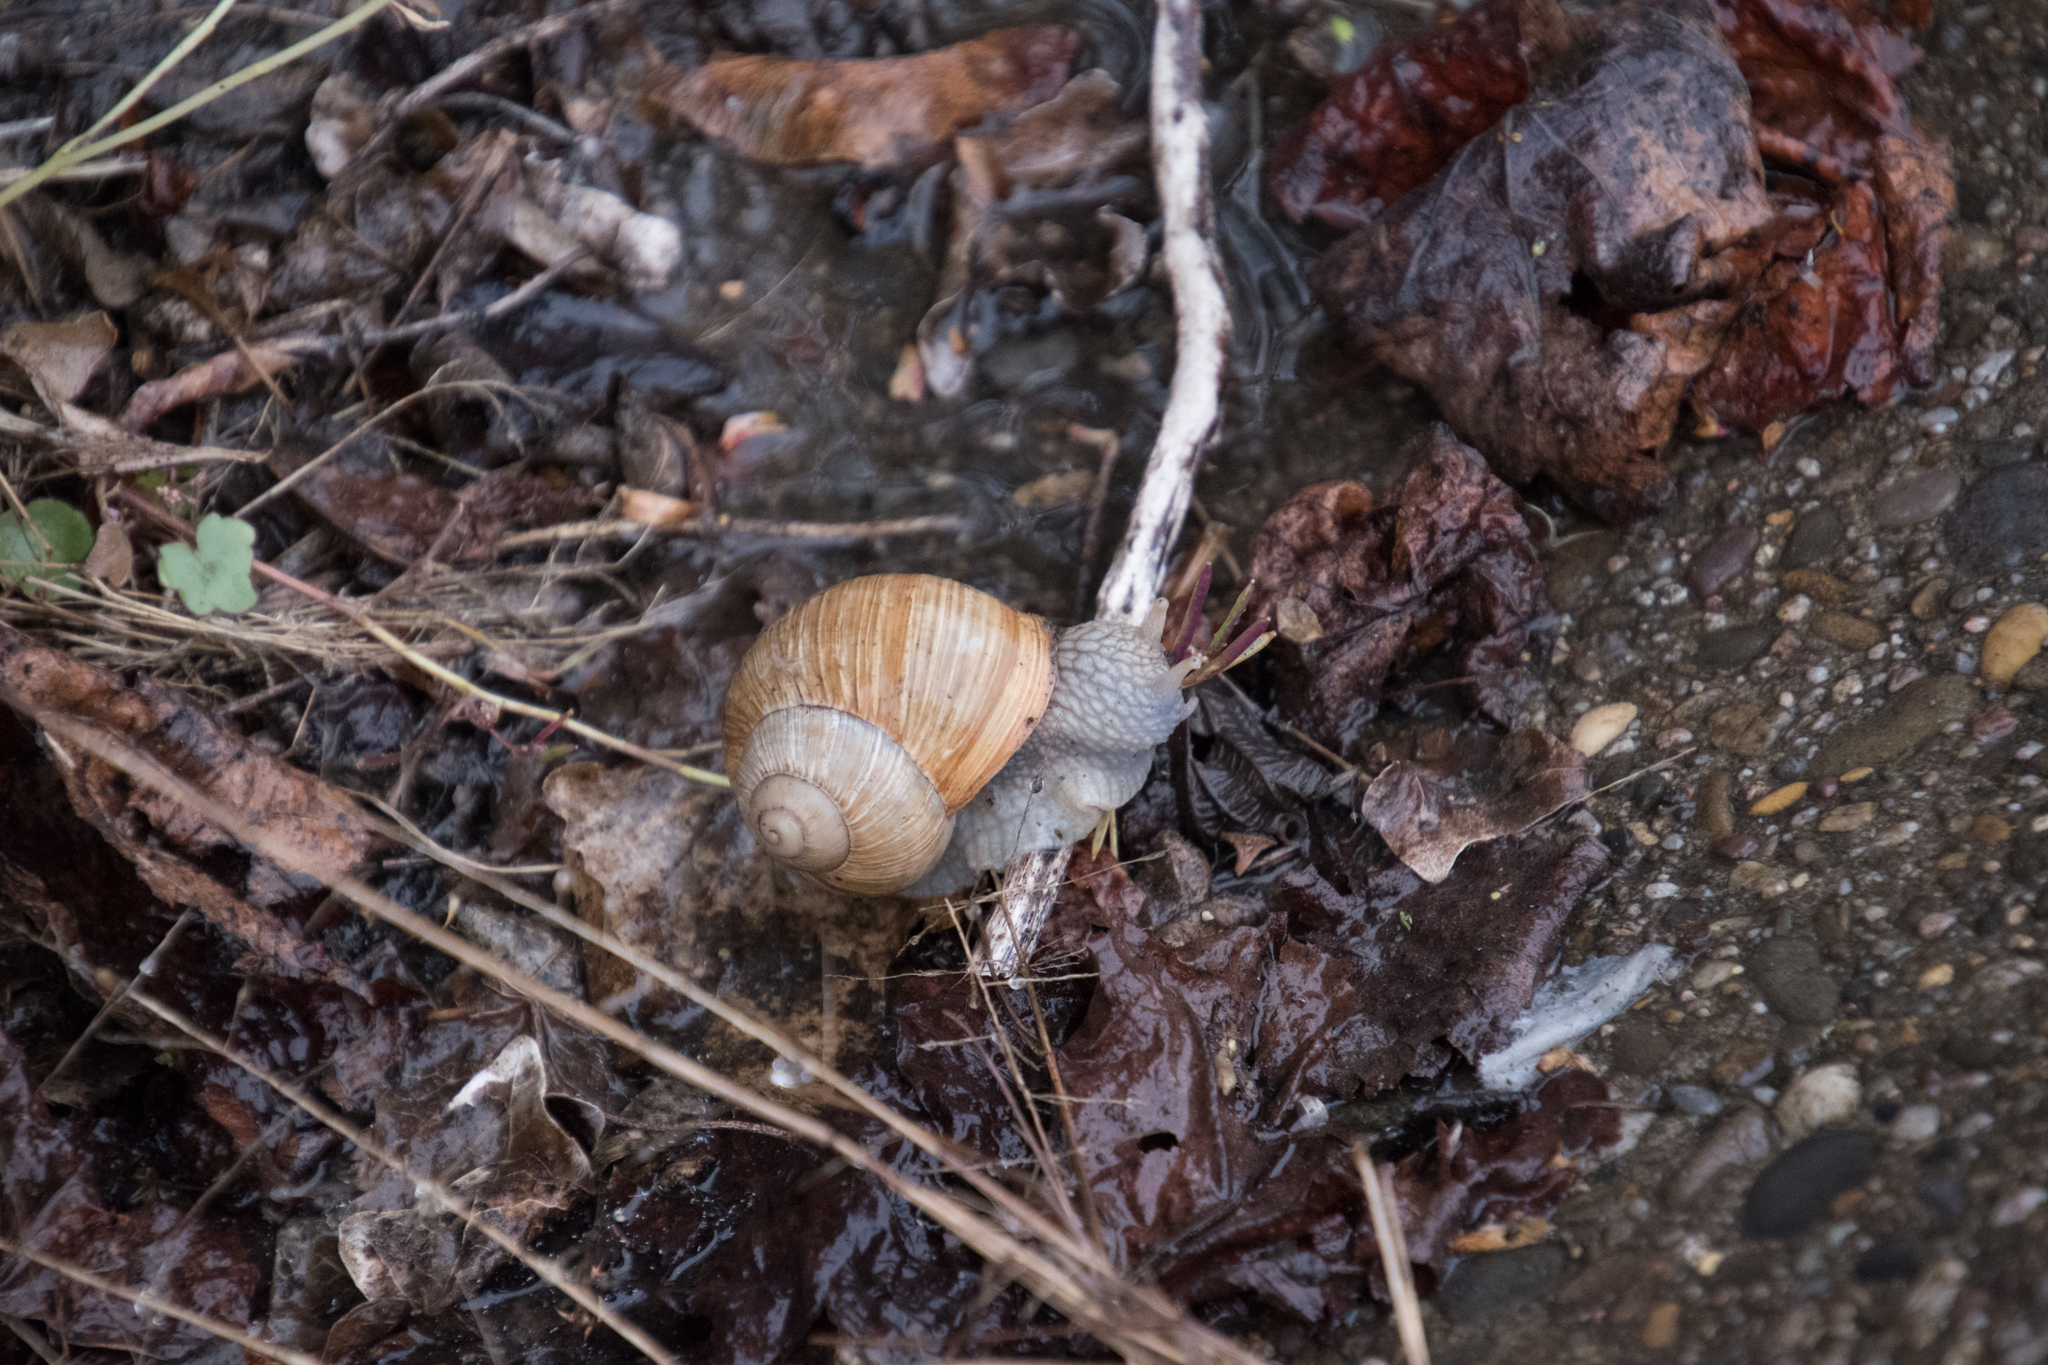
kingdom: Animalia
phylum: Mollusca
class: Gastropoda
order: Stylommatophora
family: Helicidae
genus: Helix
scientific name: Helix pomatia
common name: Roman snail
